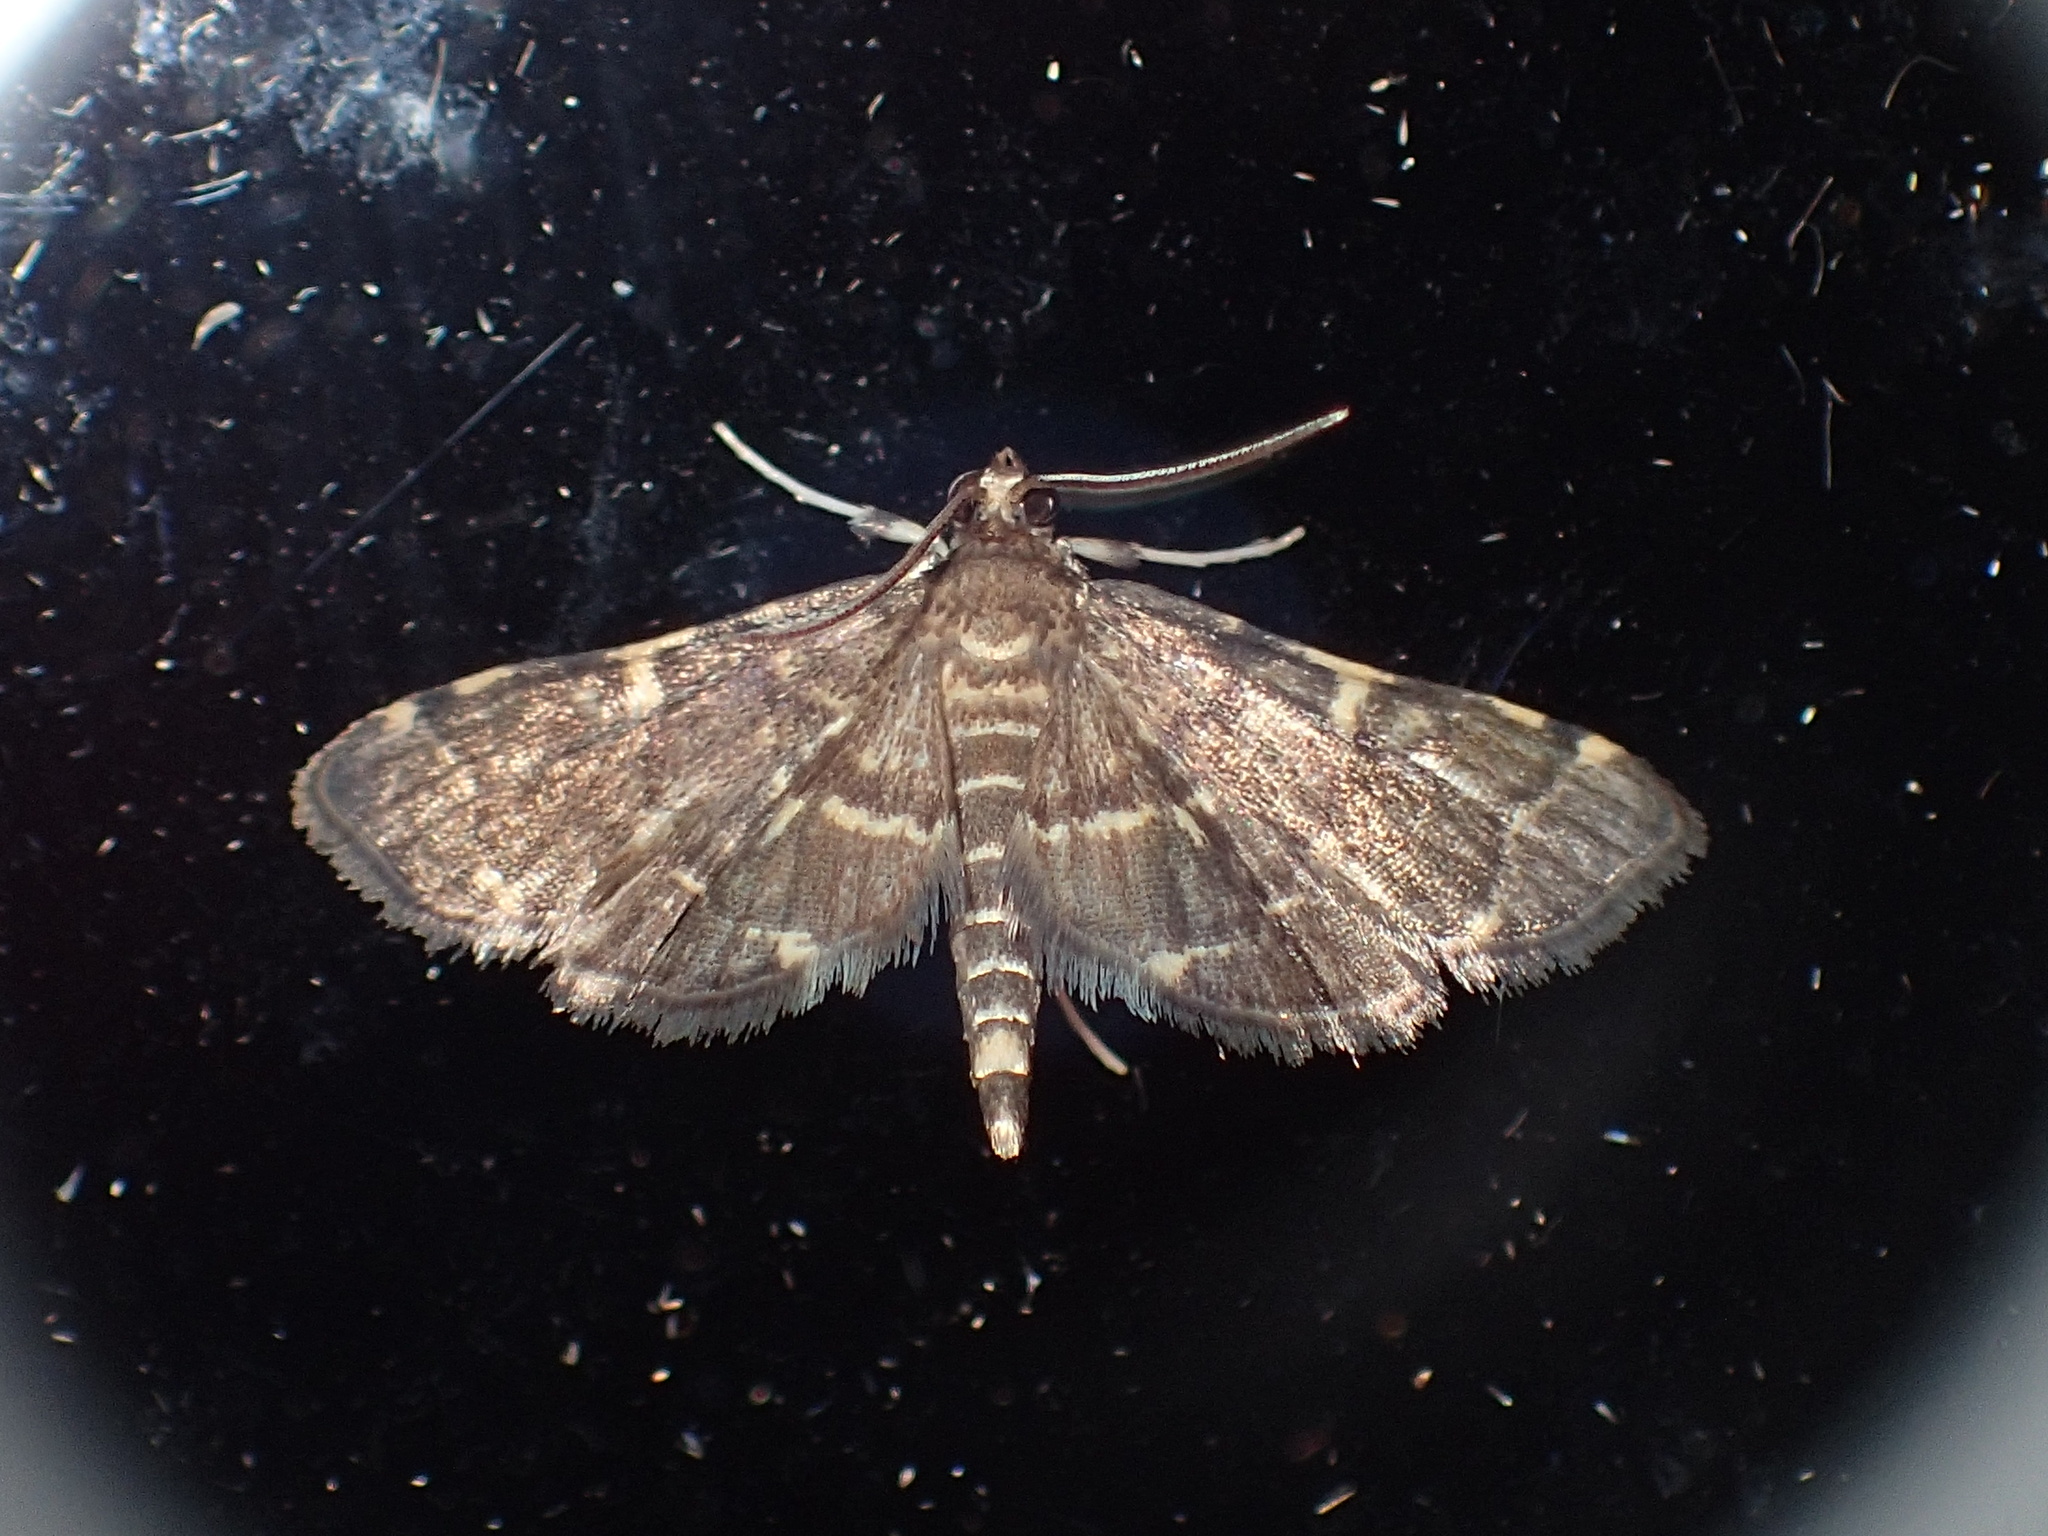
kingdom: Animalia
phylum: Arthropoda
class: Insecta
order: Lepidoptera
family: Crambidae
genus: Anageshna
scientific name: Anageshna primordialis
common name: Yellow-spotted webworm moth
